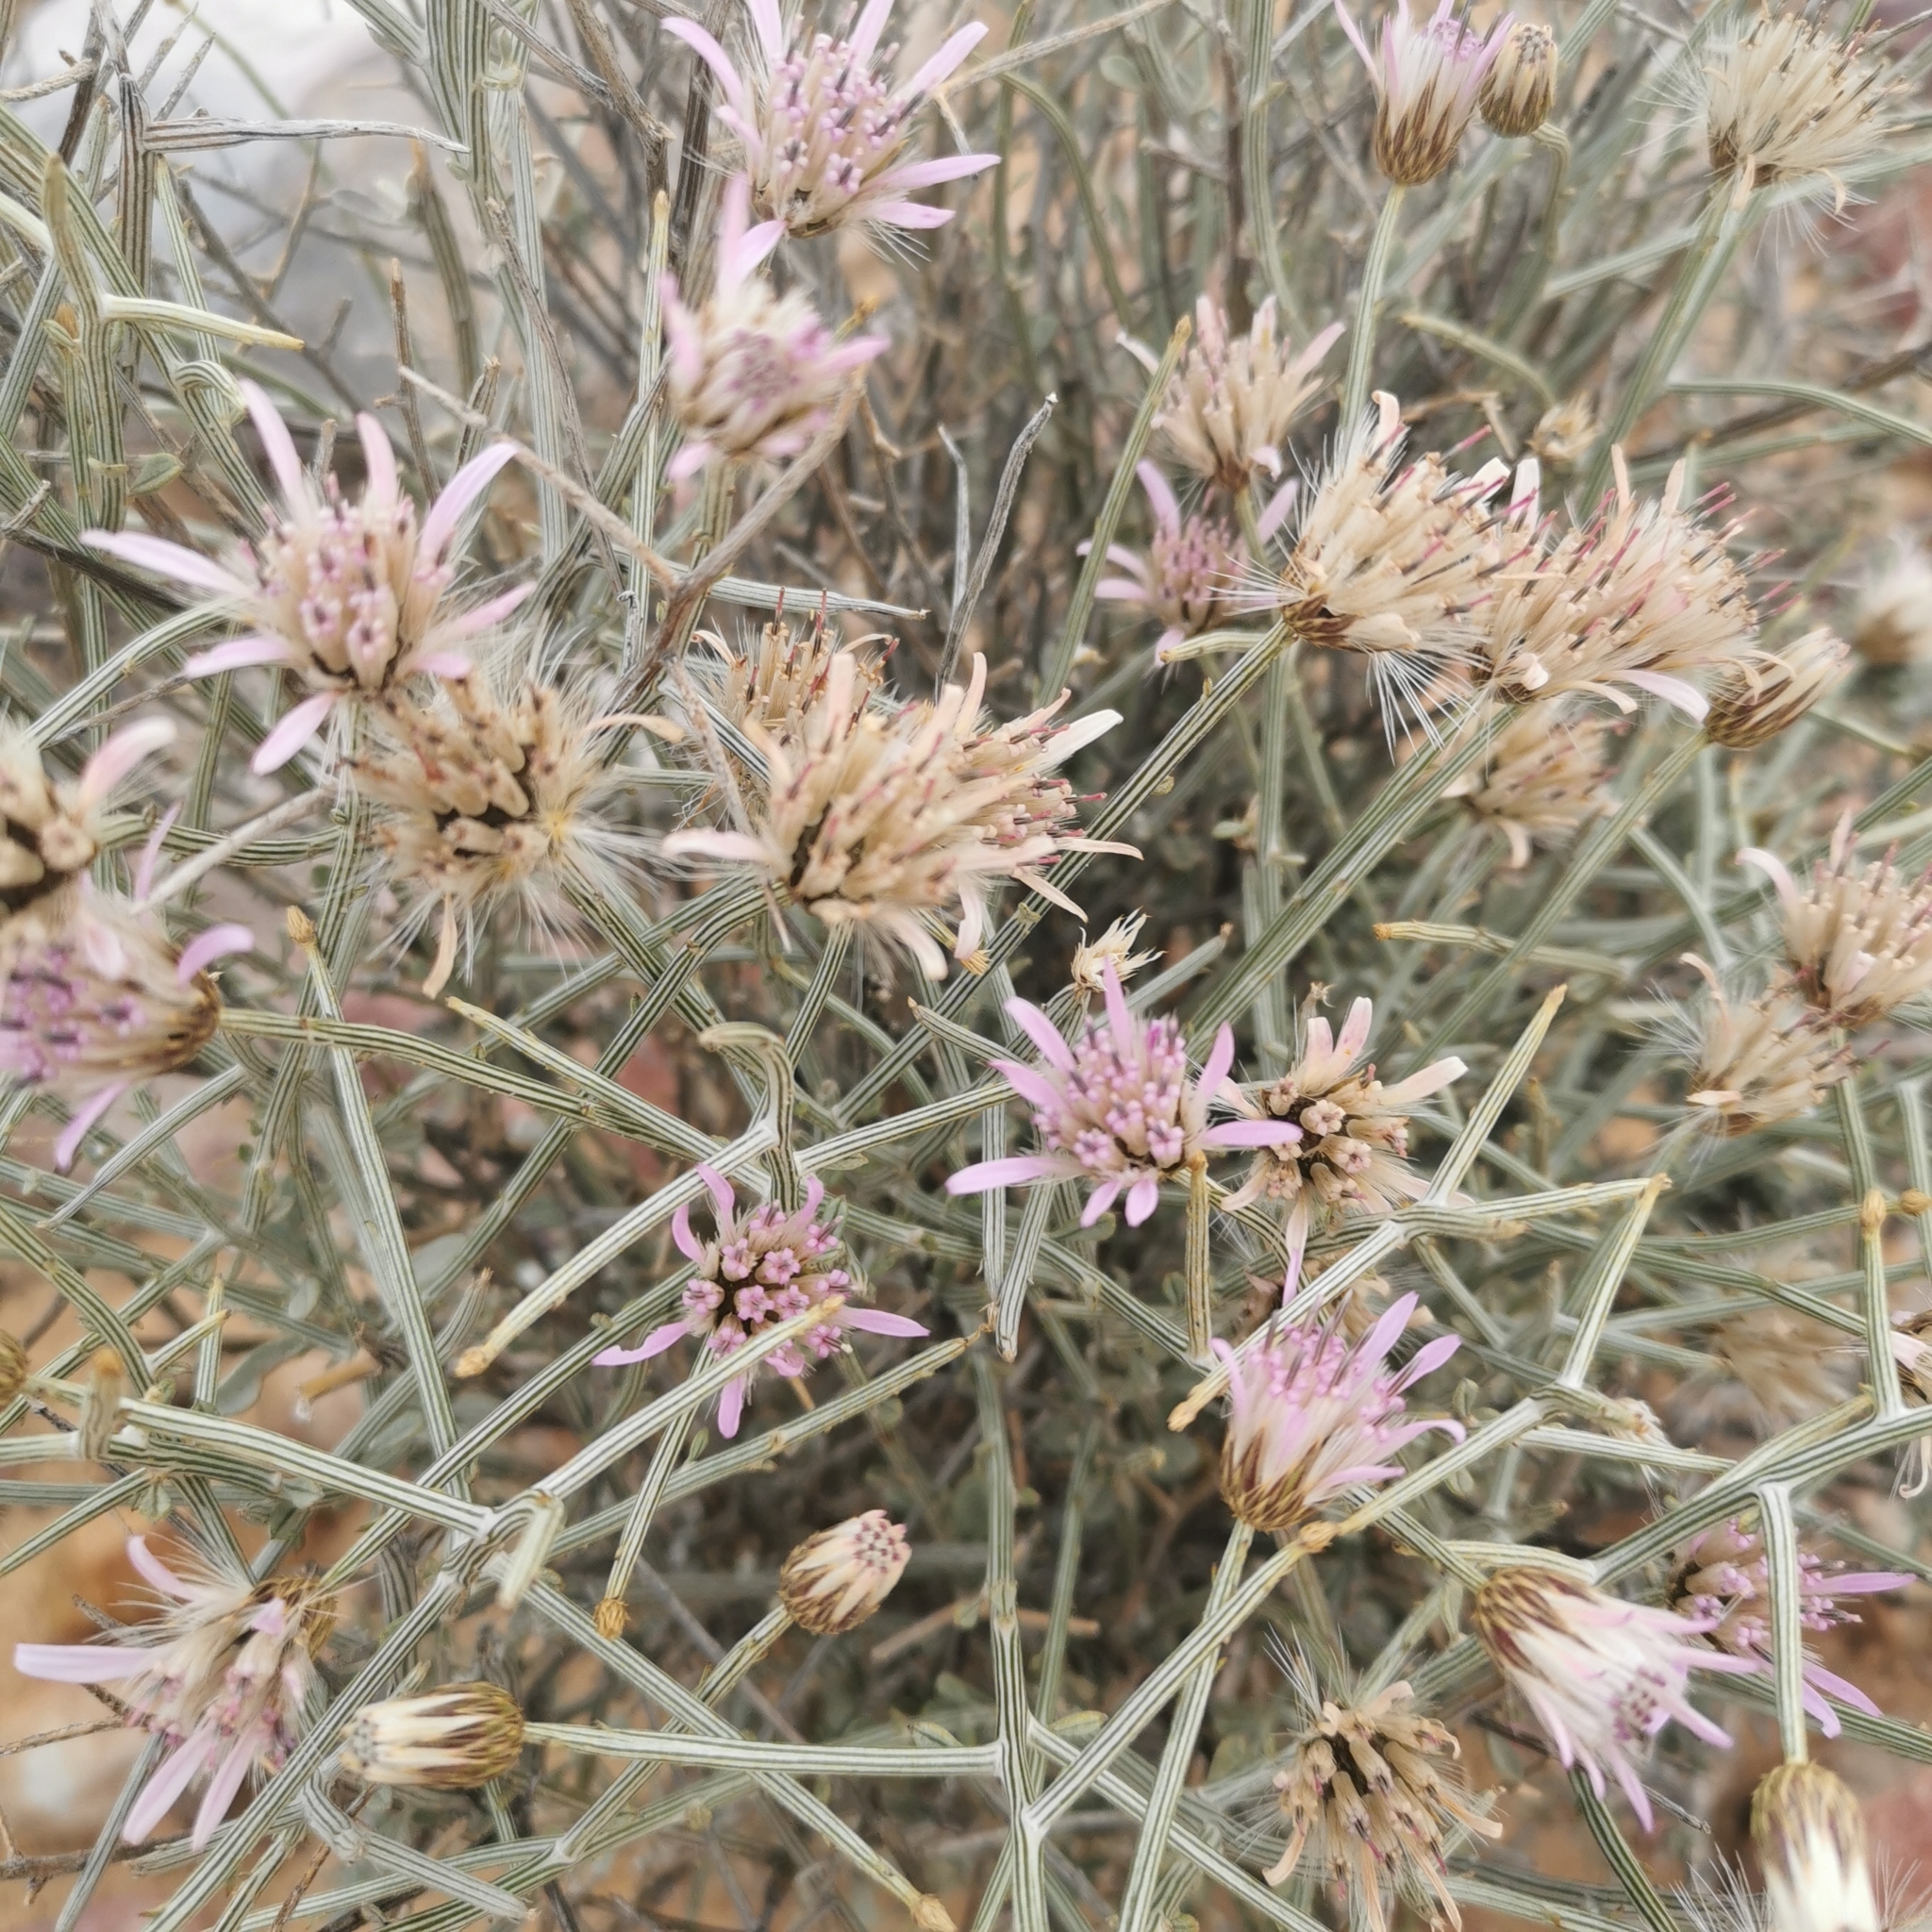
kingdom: Plantae
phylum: Tracheophyta
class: Magnoliopsida
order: Asterales
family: Asteraceae
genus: Dicoma
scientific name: Dicoma picta
